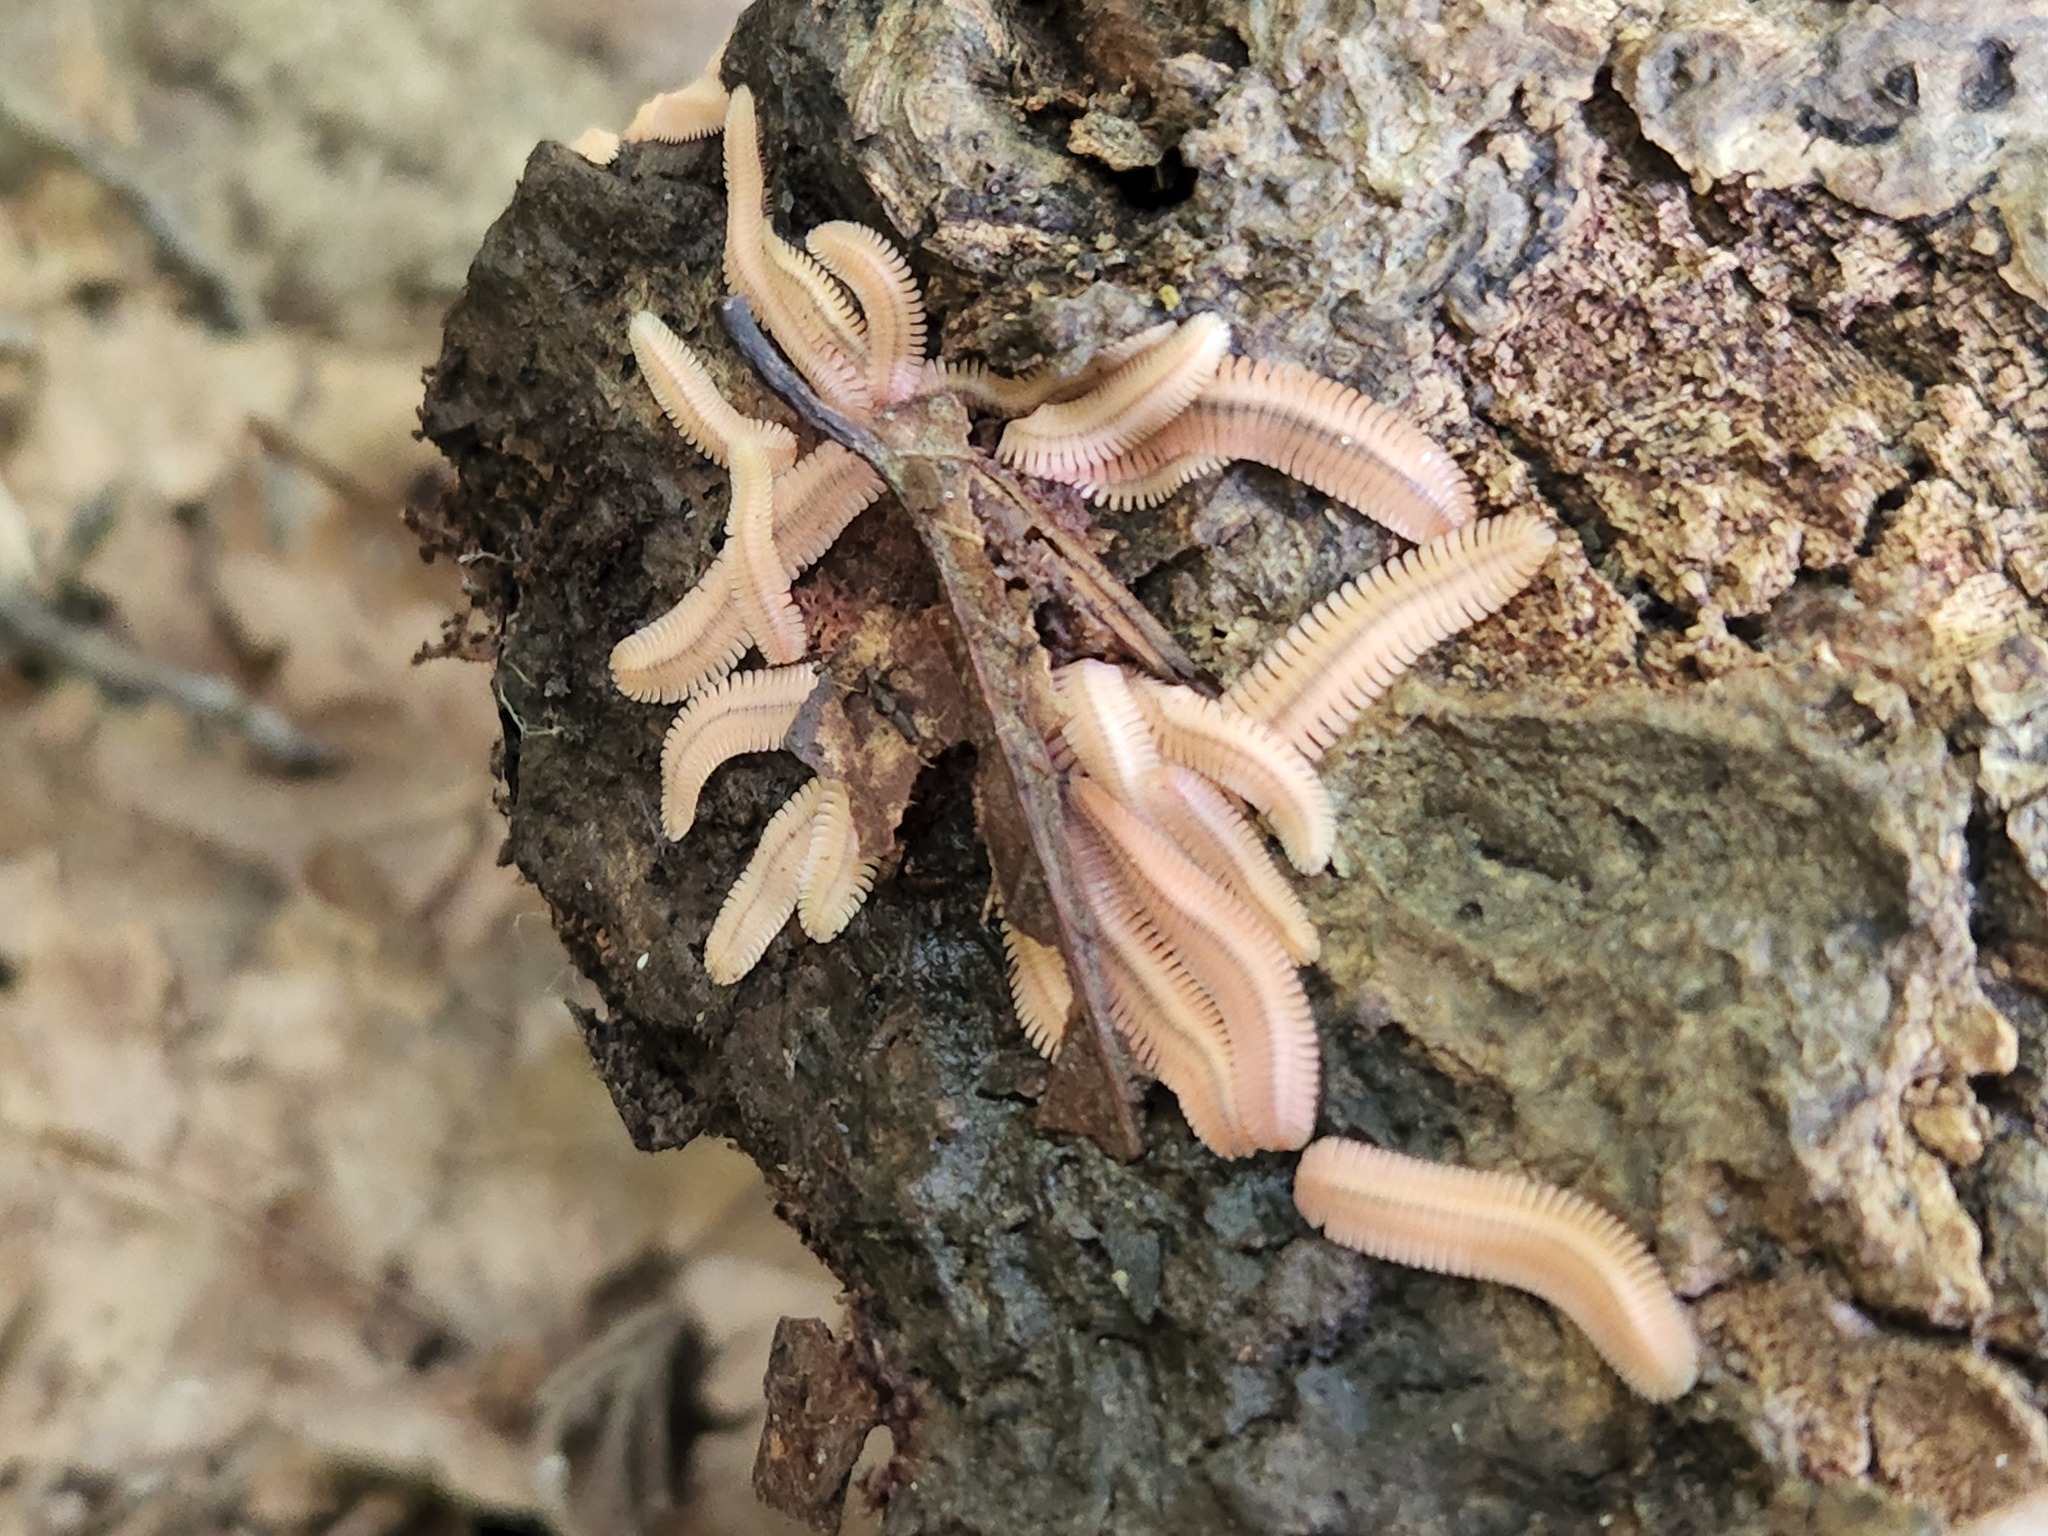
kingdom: Animalia
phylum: Arthropoda
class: Diplopoda
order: Platydesmida
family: Andrognathidae
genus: Brachycybe
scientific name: Brachycybe lecontii
